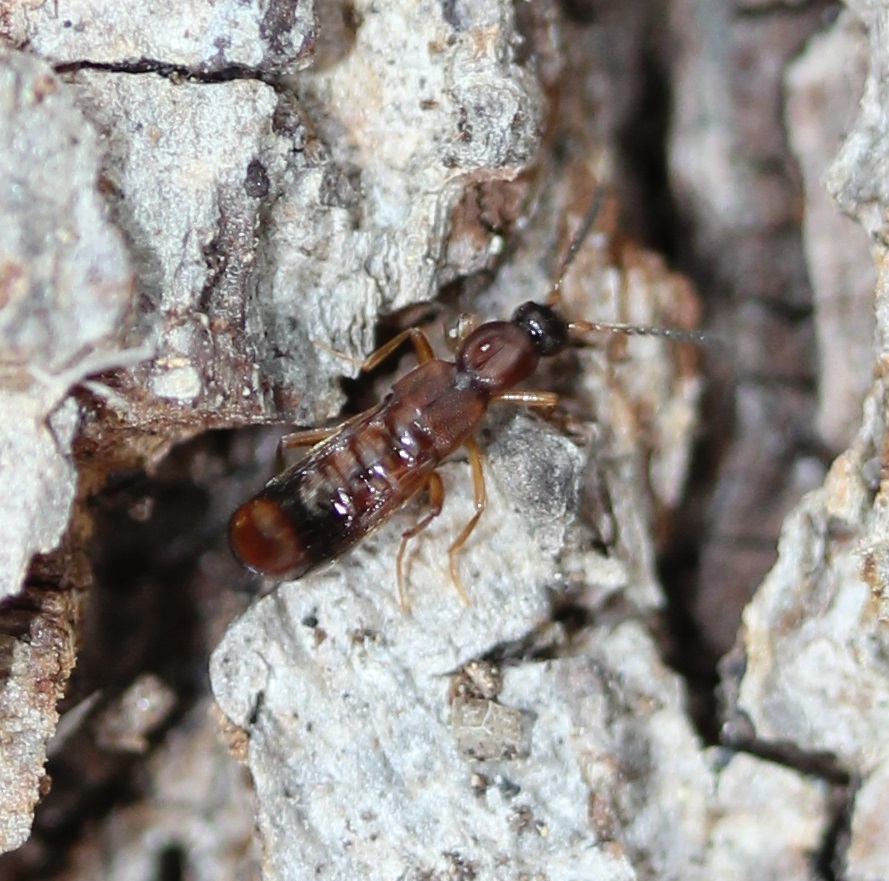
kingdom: Animalia
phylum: Arthropoda
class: Insecta
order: Coleoptera
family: Staphylinidae
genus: Drusilla
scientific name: Drusilla canaliculata
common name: Rove beetle
